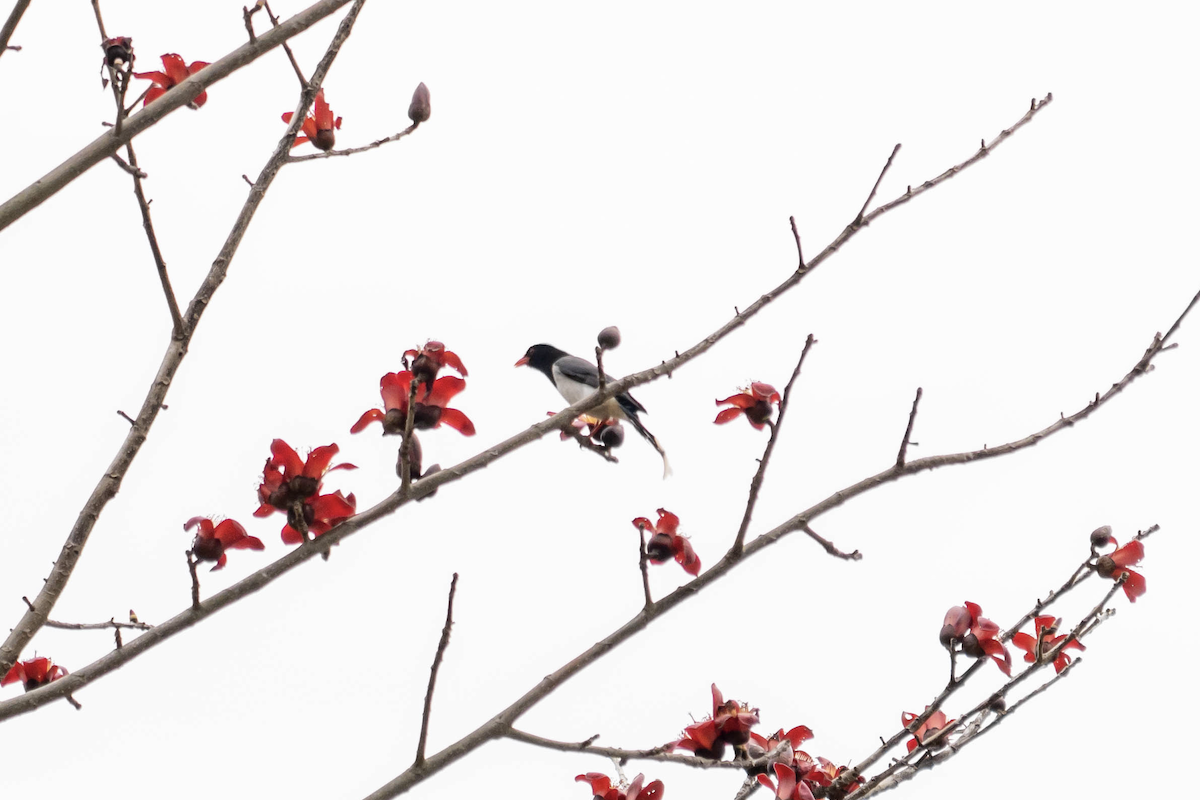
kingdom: Animalia
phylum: Chordata
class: Aves
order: Passeriformes
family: Corvidae
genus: Urocissa
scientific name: Urocissa erythroryncha
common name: Red-billed blue magpie
